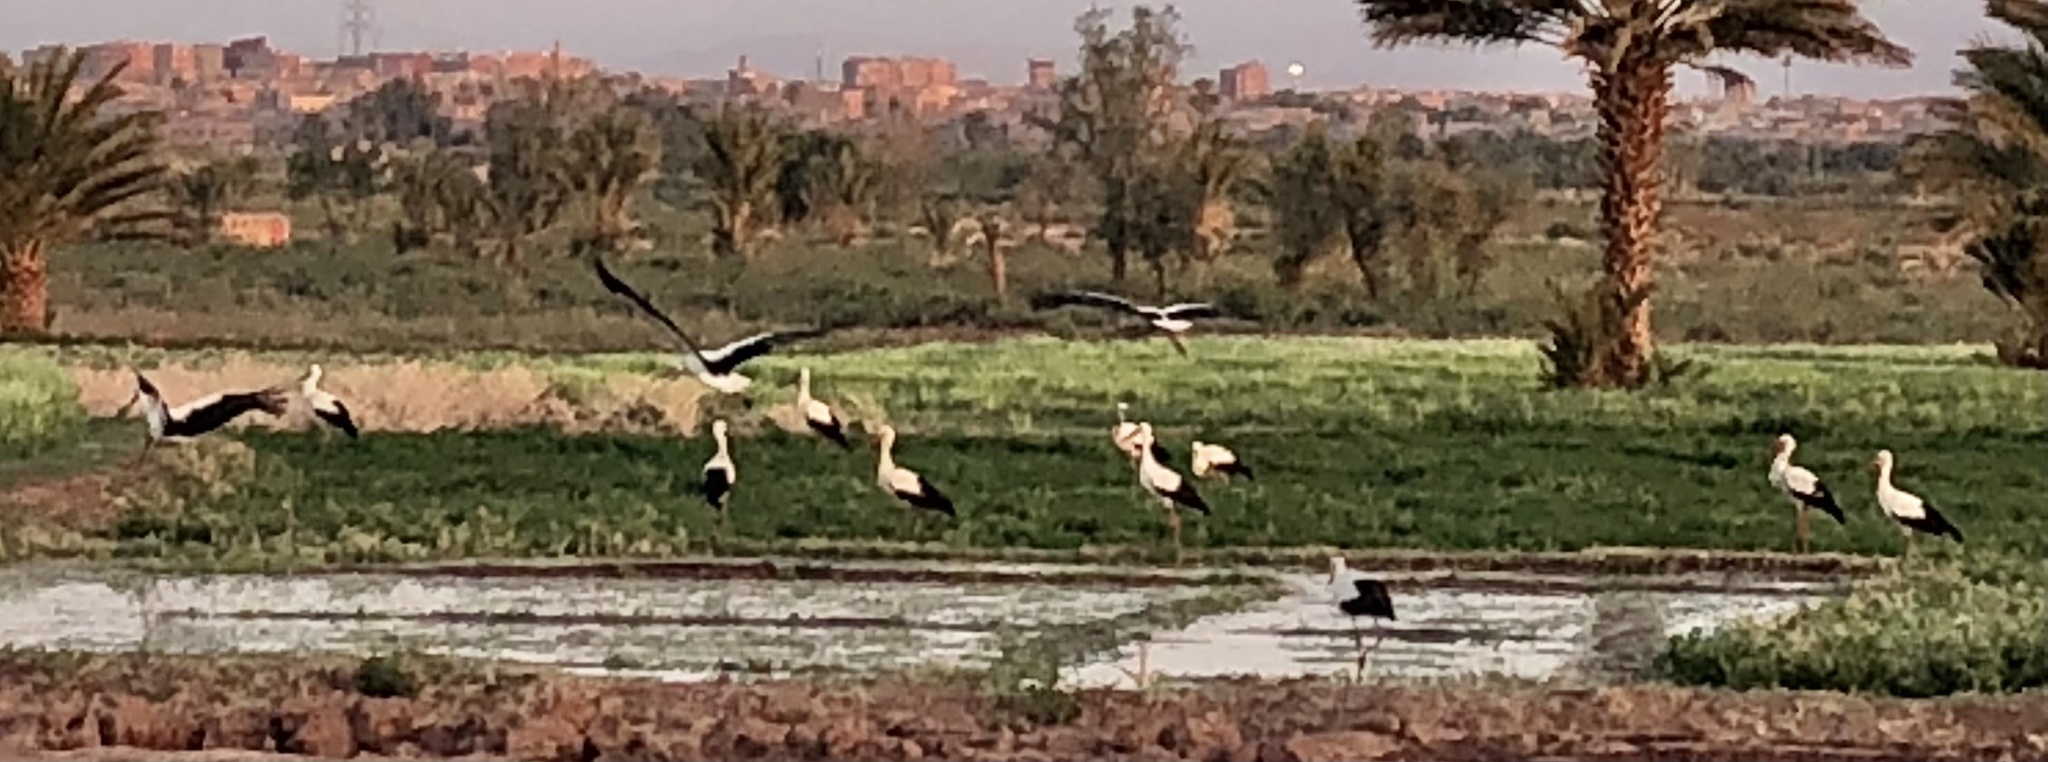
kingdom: Animalia
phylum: Chordata
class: Aves
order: Ciconiiformes
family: Ciconiidae
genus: Ciconia
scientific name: Ciconia ciconia
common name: White stork
